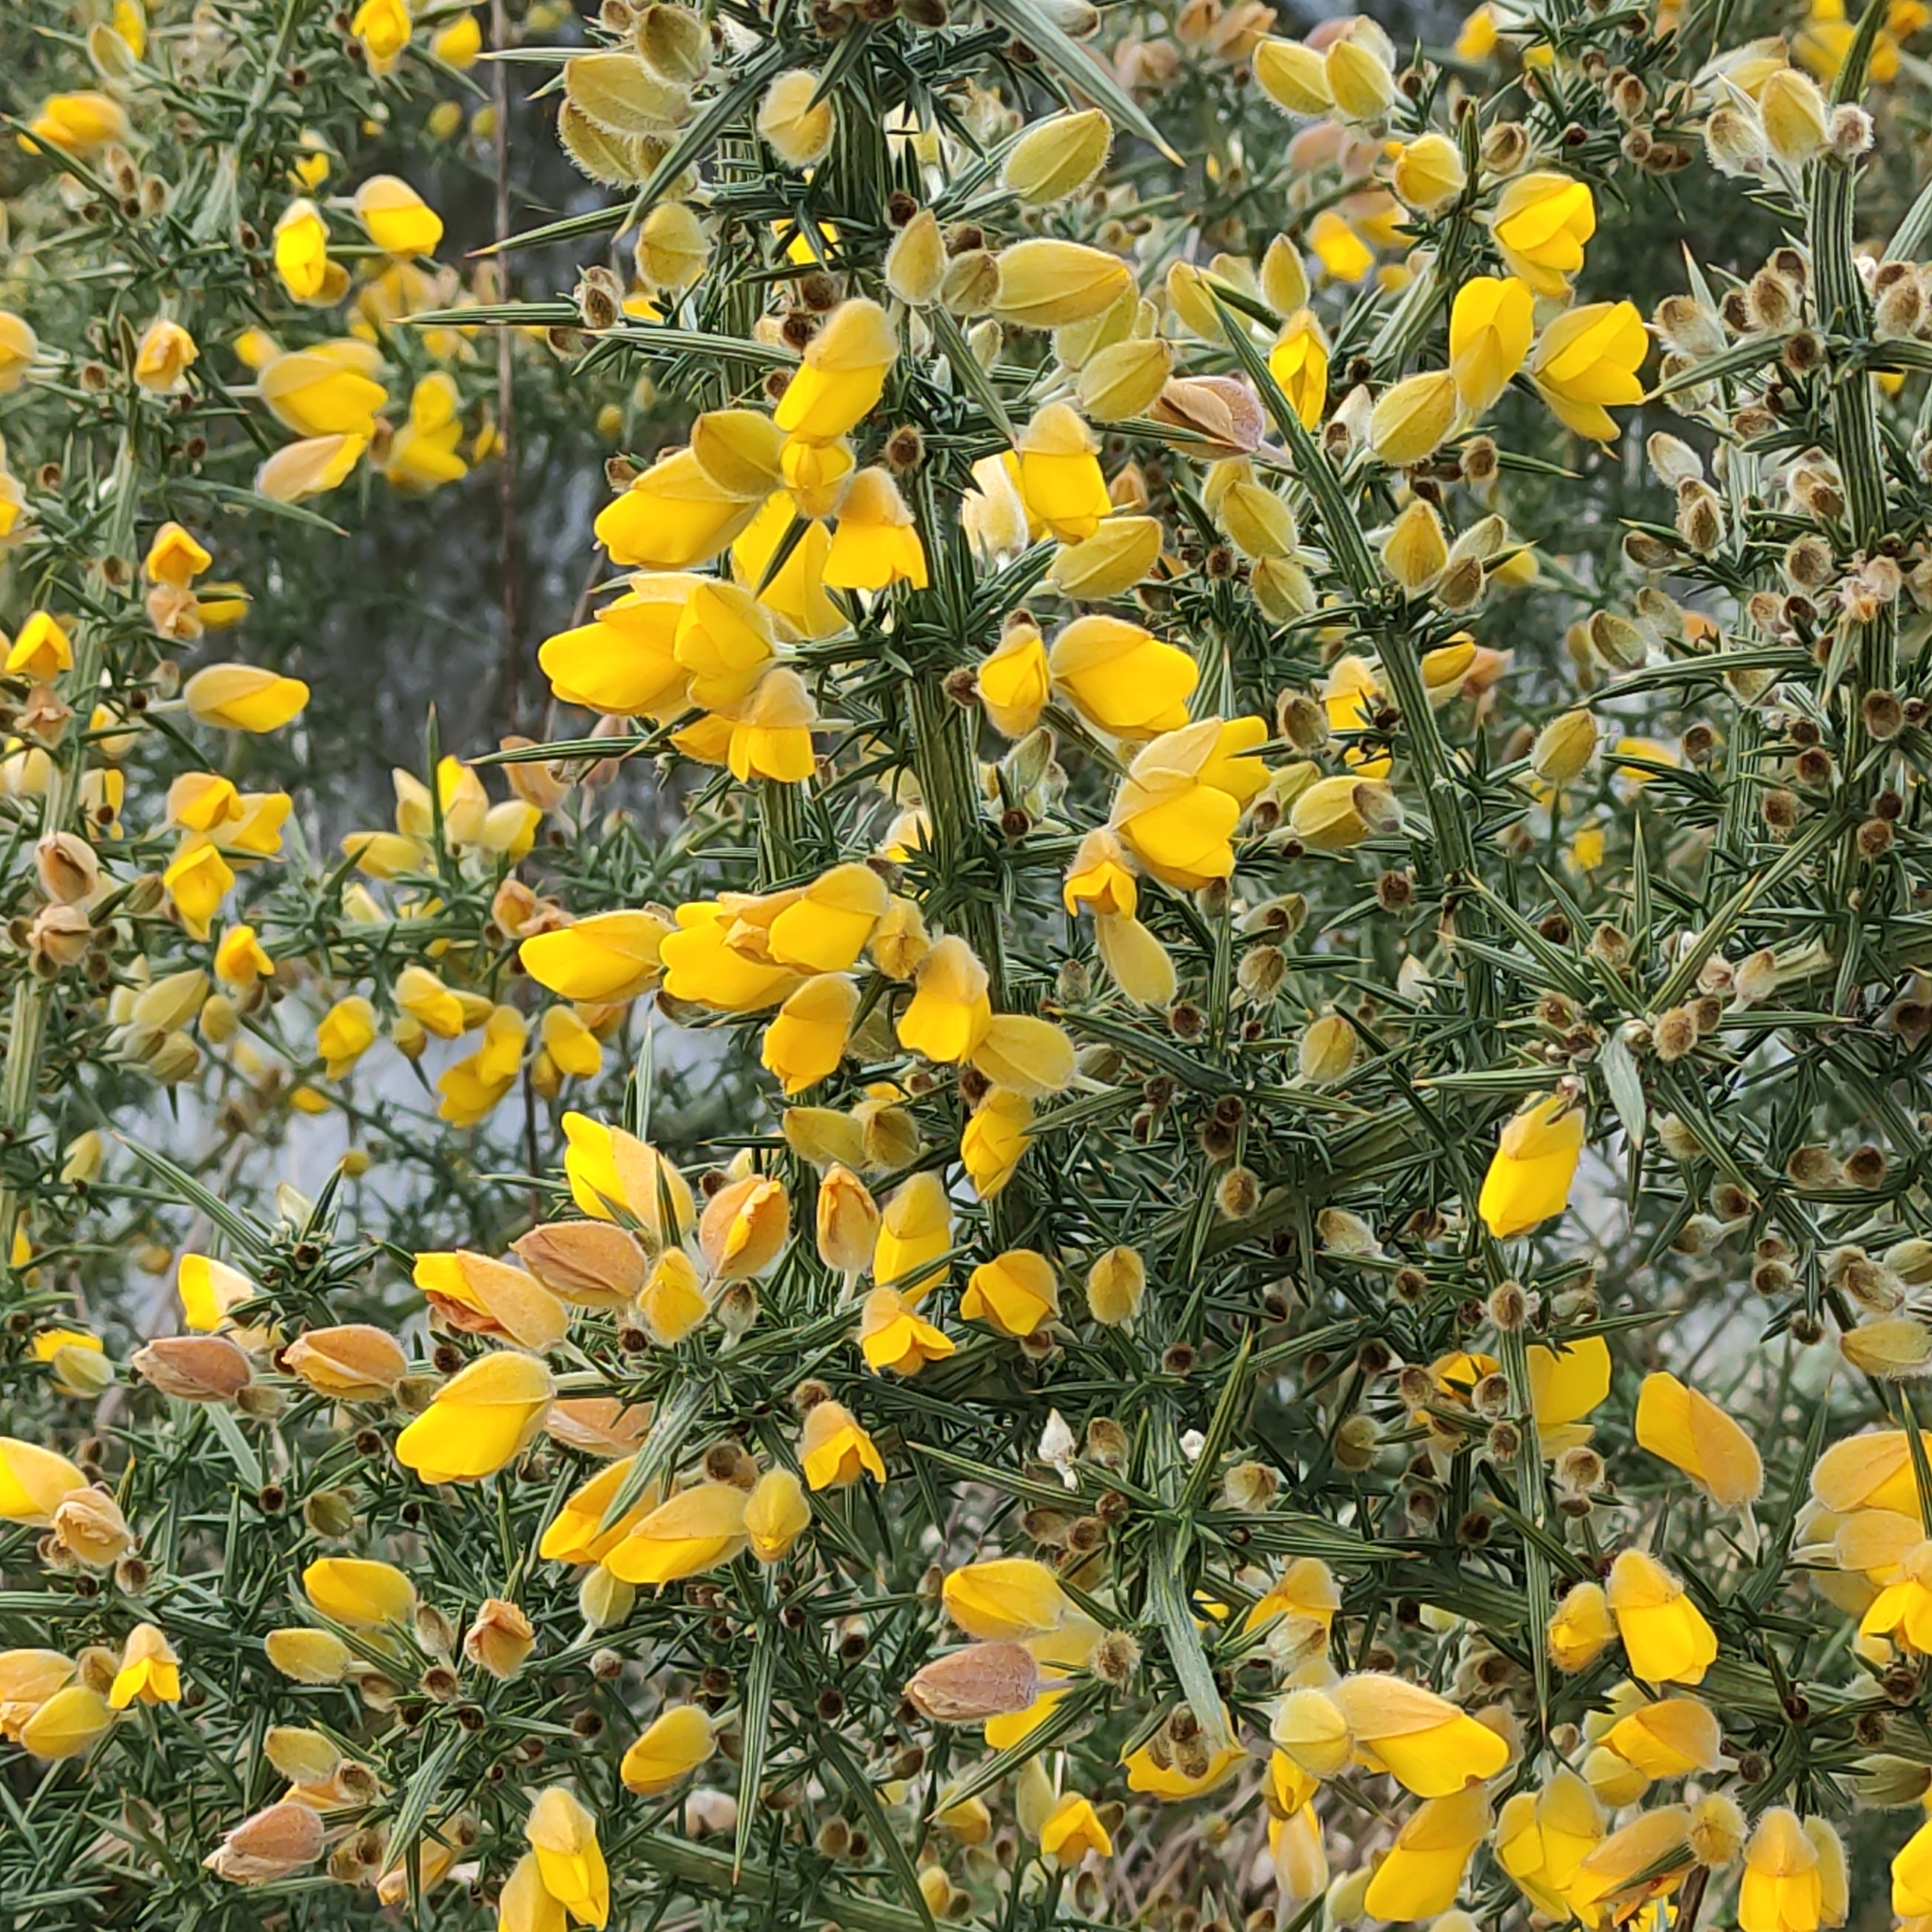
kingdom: Plantae
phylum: Tracheophyta
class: Magnoliopsida
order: Fabales
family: Fabaceae
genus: Ulex
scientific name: Ulex europaeus
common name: Common gorse
